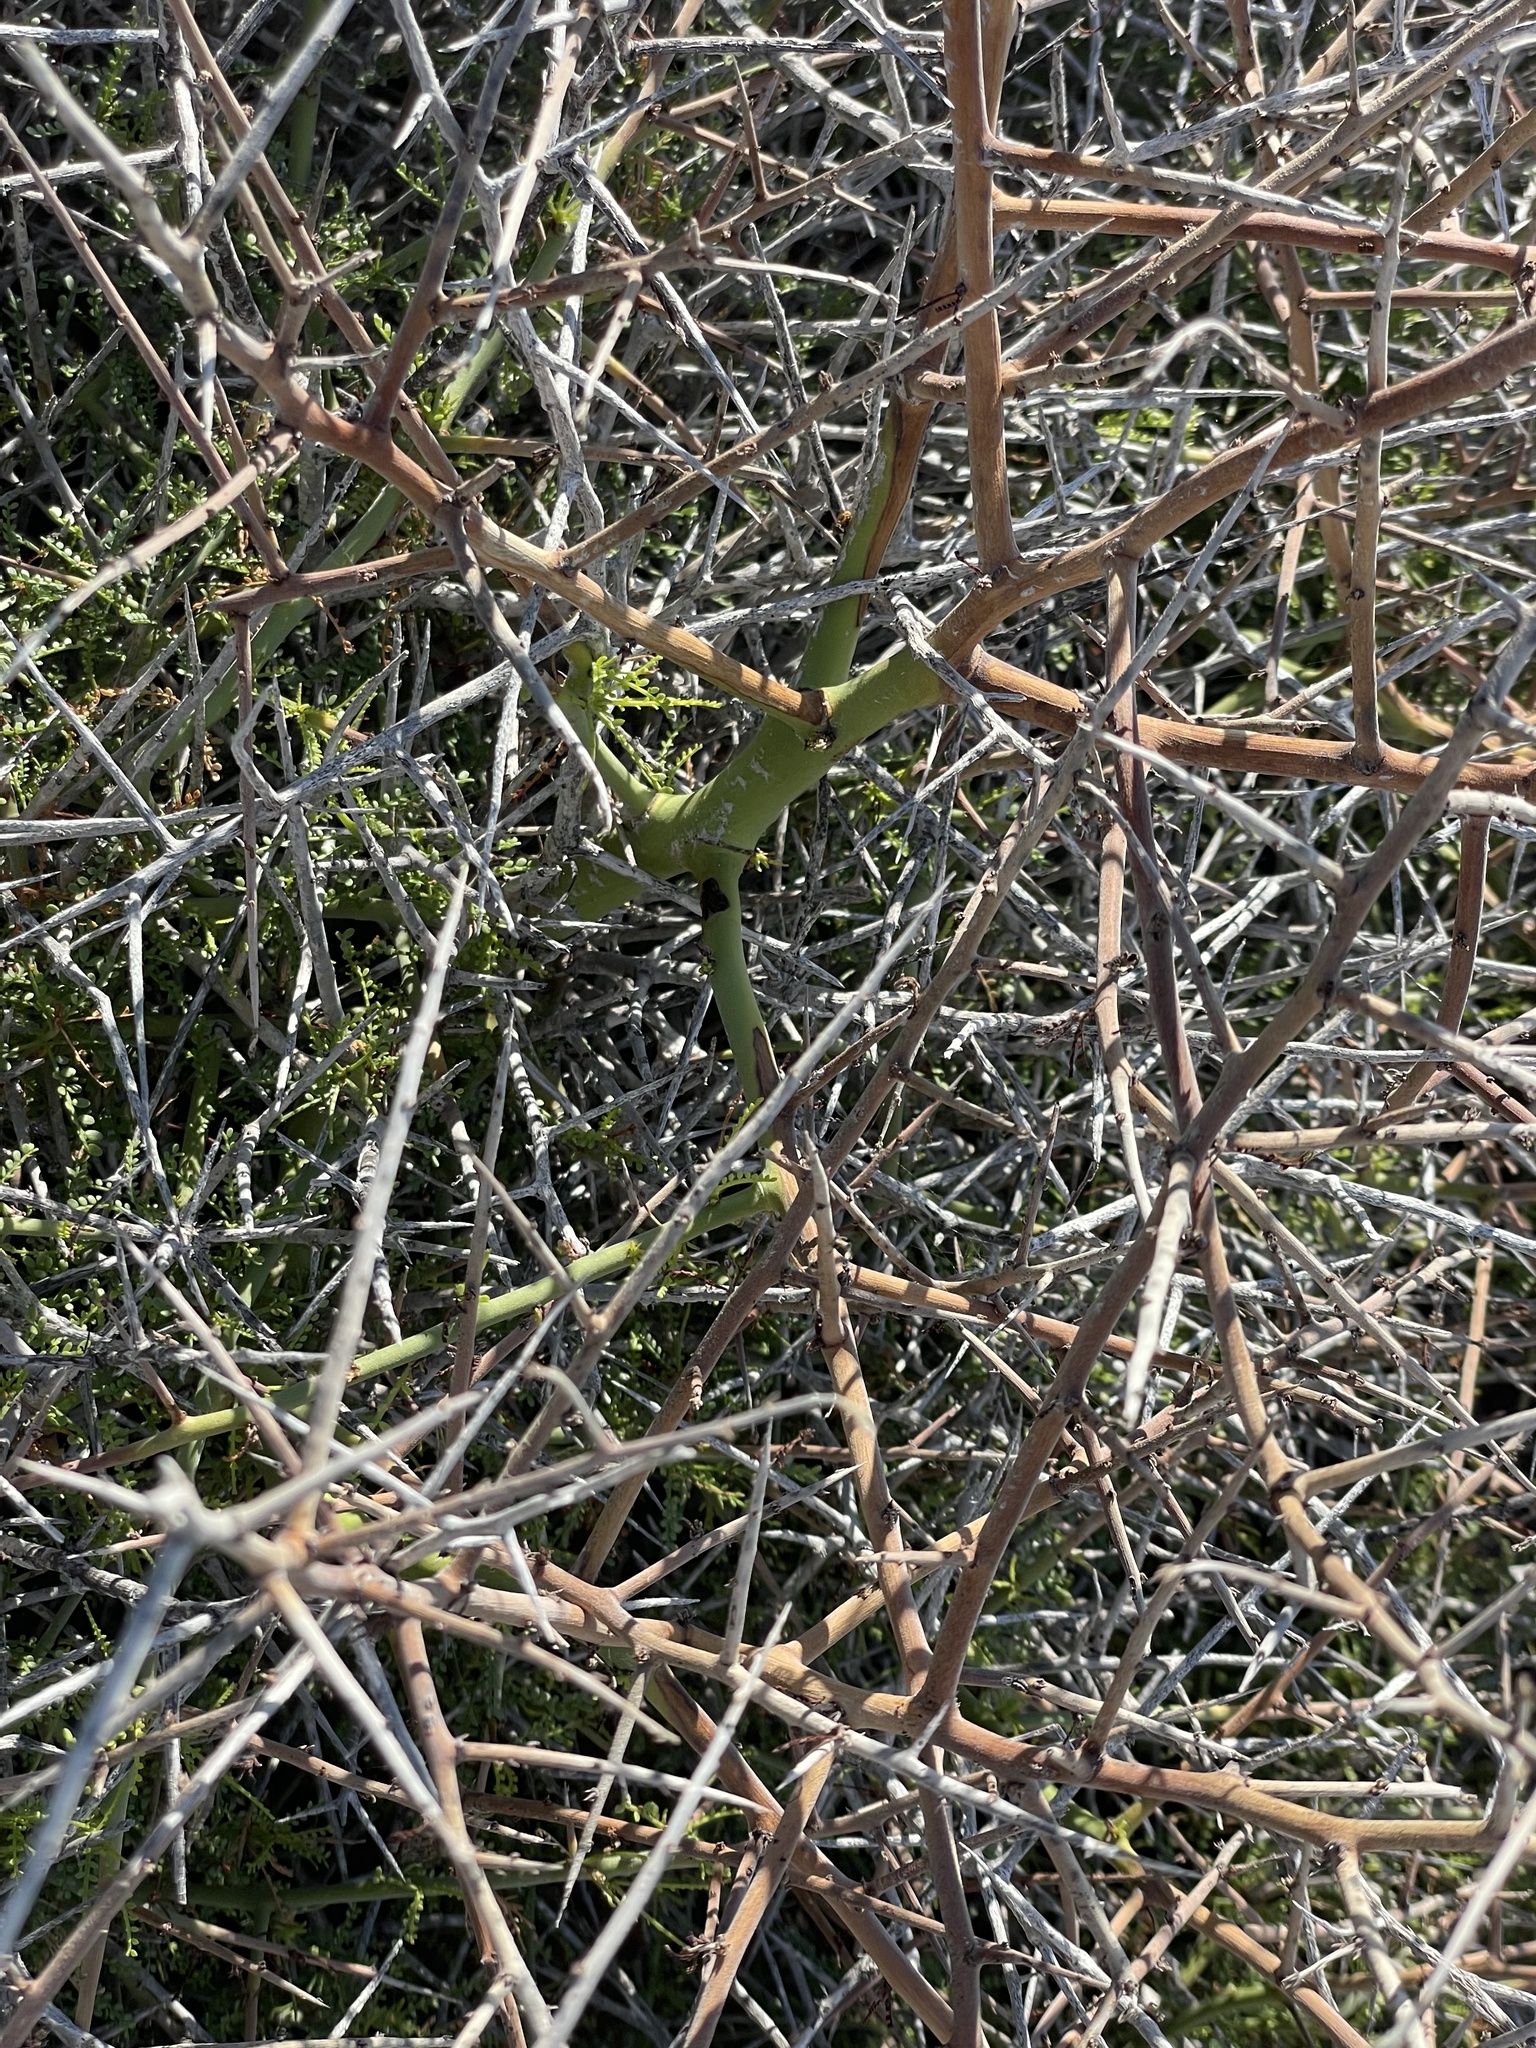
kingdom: Plantae
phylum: Tracheophyta
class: Magnoliopsida
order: Fabales
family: Fabaceae
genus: Parkinsonia
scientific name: Parkinsonia microphylla
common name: Yellow paloverde
